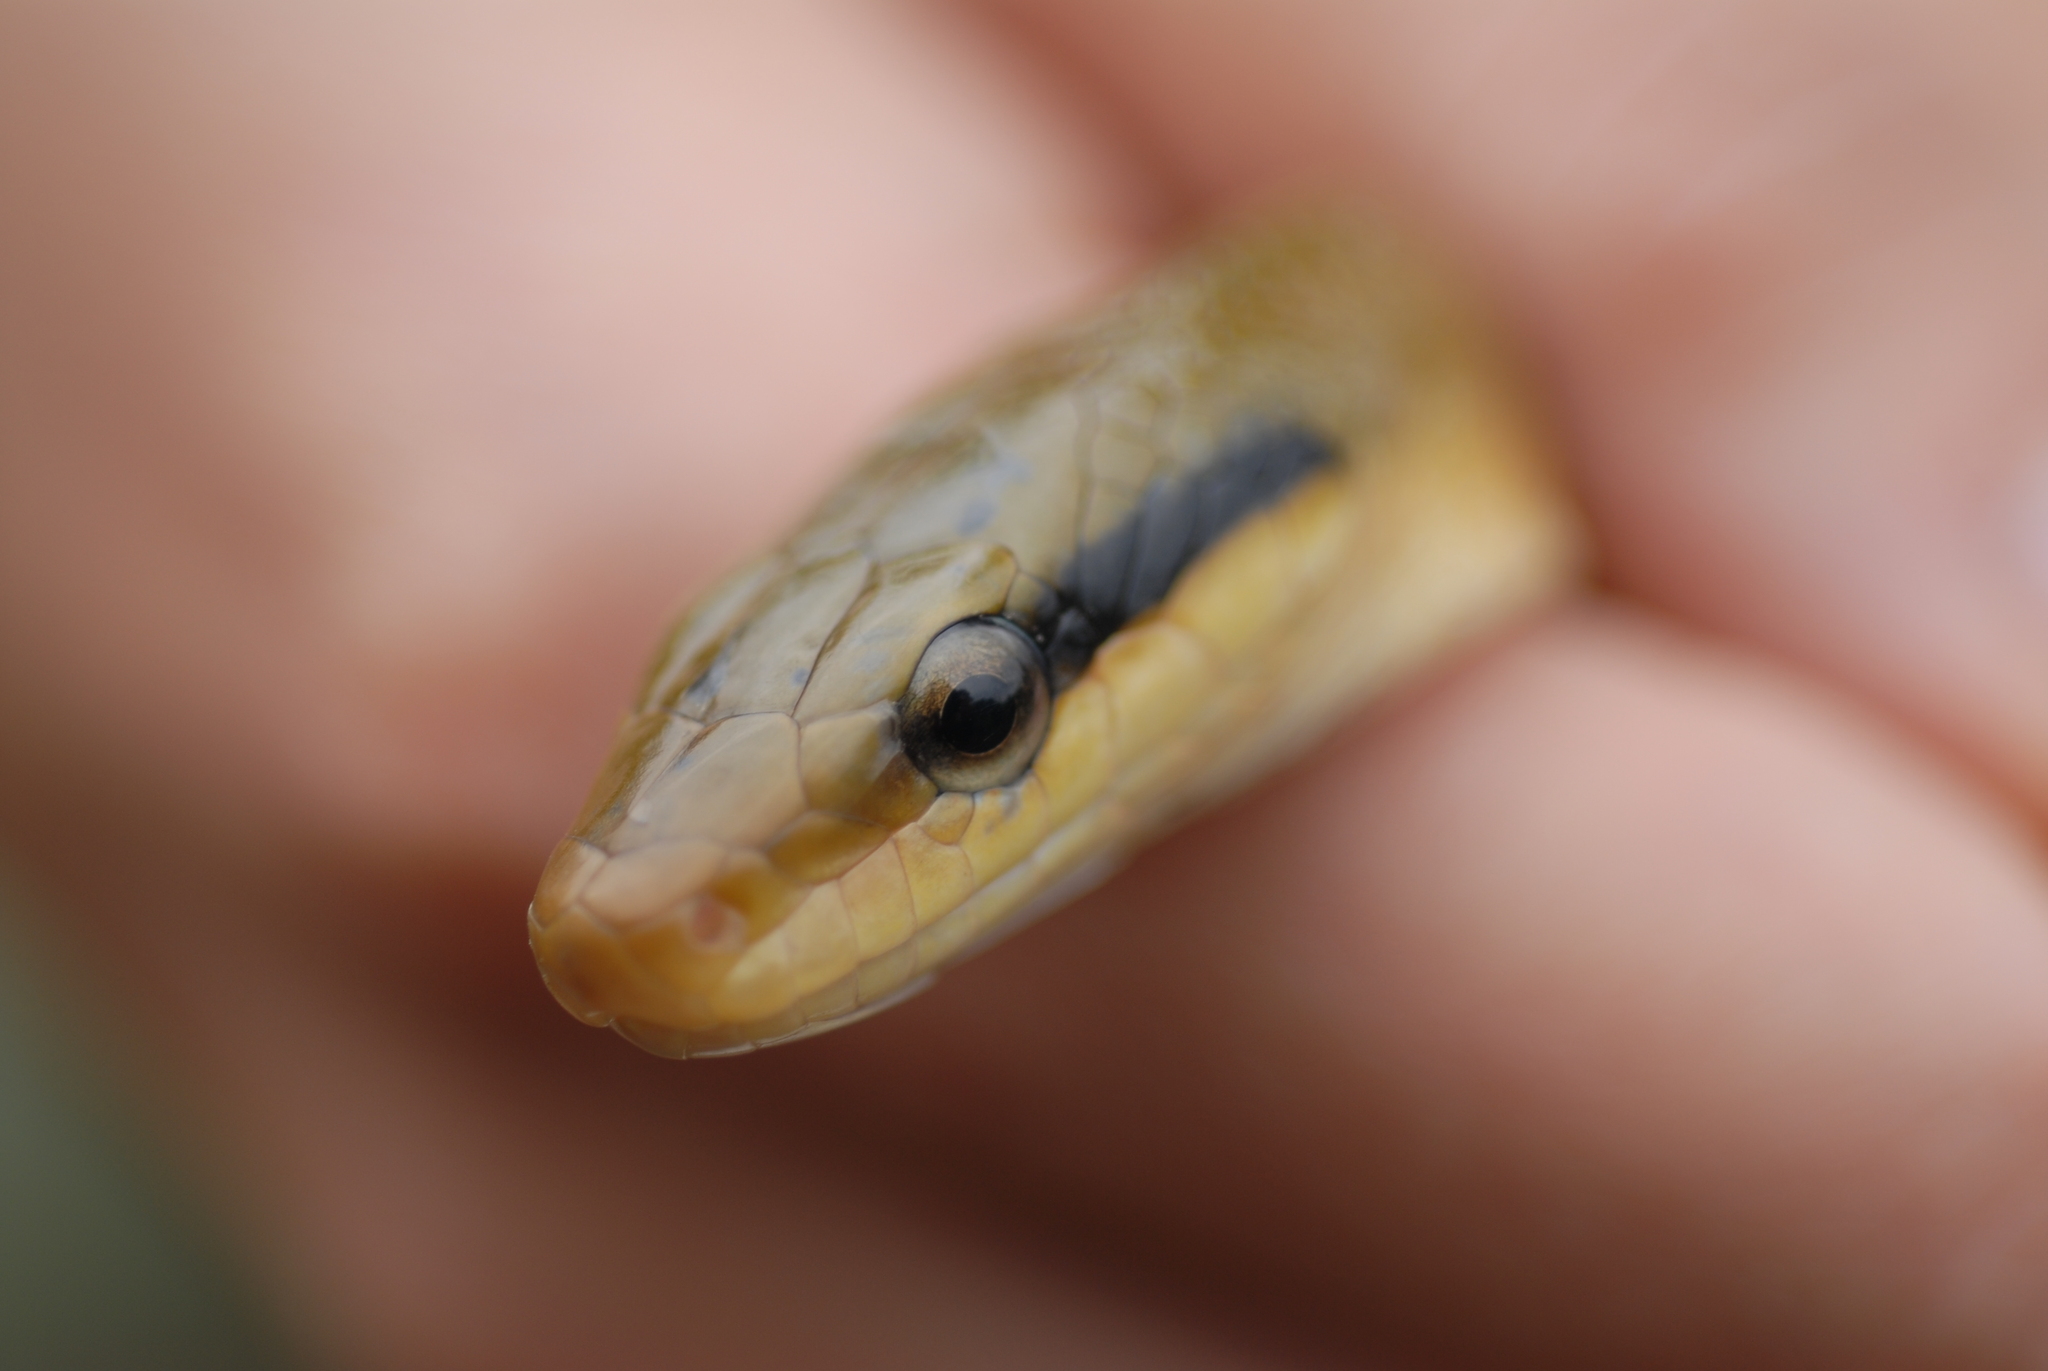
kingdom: Animalia
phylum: Chordata
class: Squamata
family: Colubridae
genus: Elaphe
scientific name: Elaphe taeniura
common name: Beauty snake
